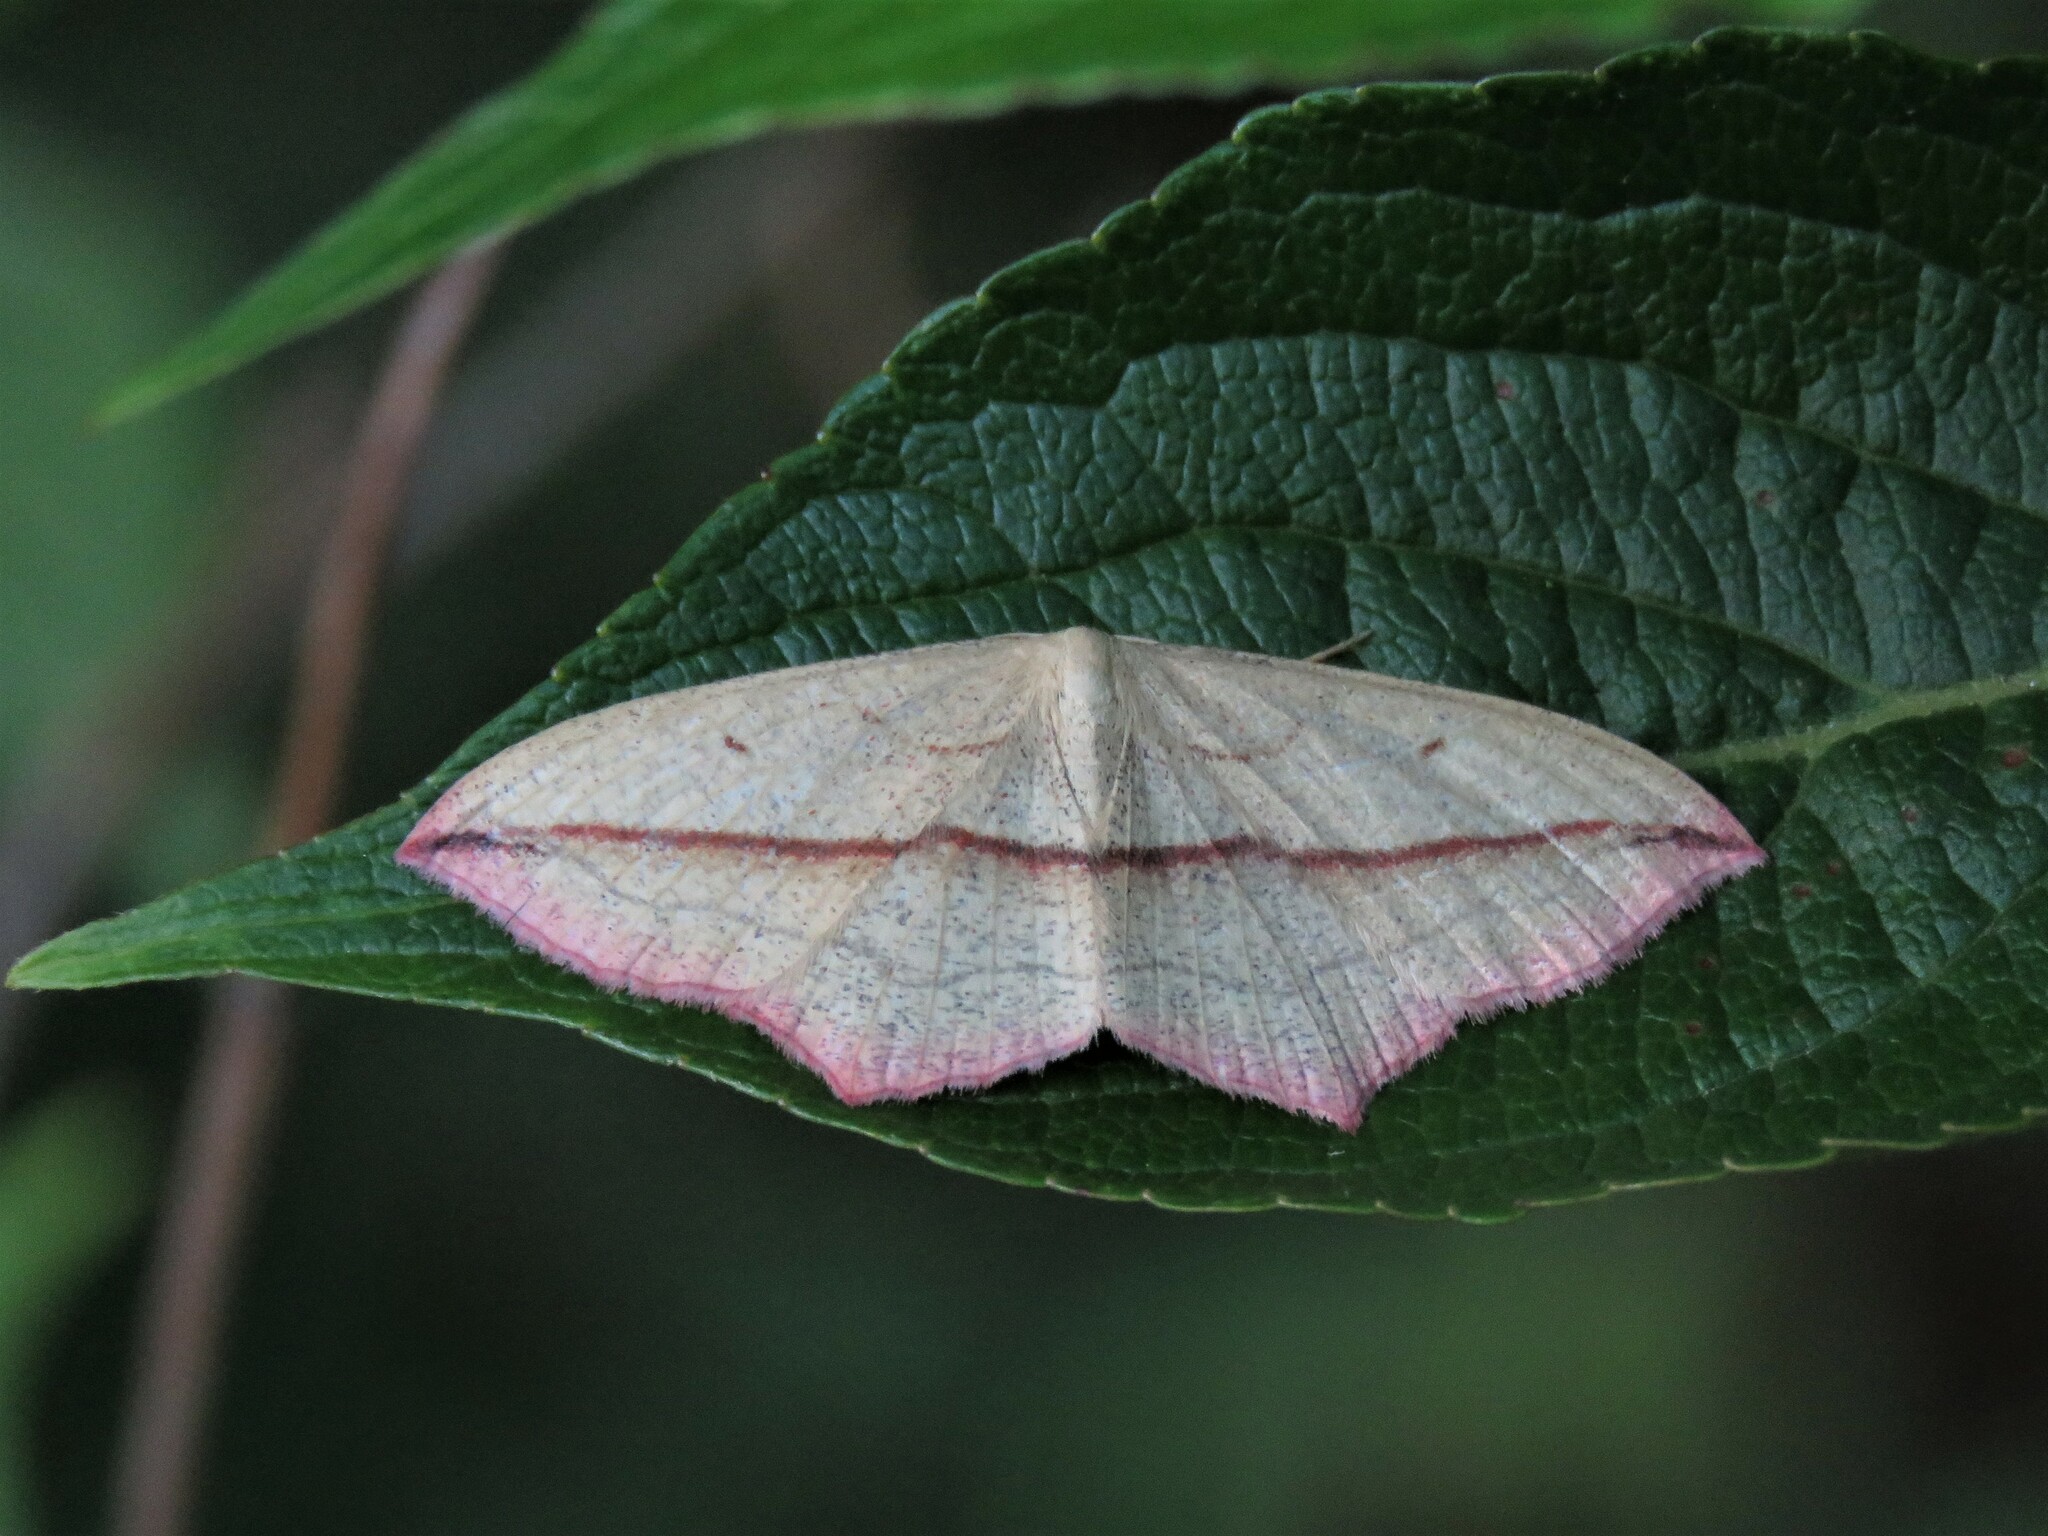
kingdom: Animalia
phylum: Arthropoda
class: Insecta
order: Lepidoptera
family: Geometridae
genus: Timandra
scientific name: Timandra comae
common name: Blood-vein
